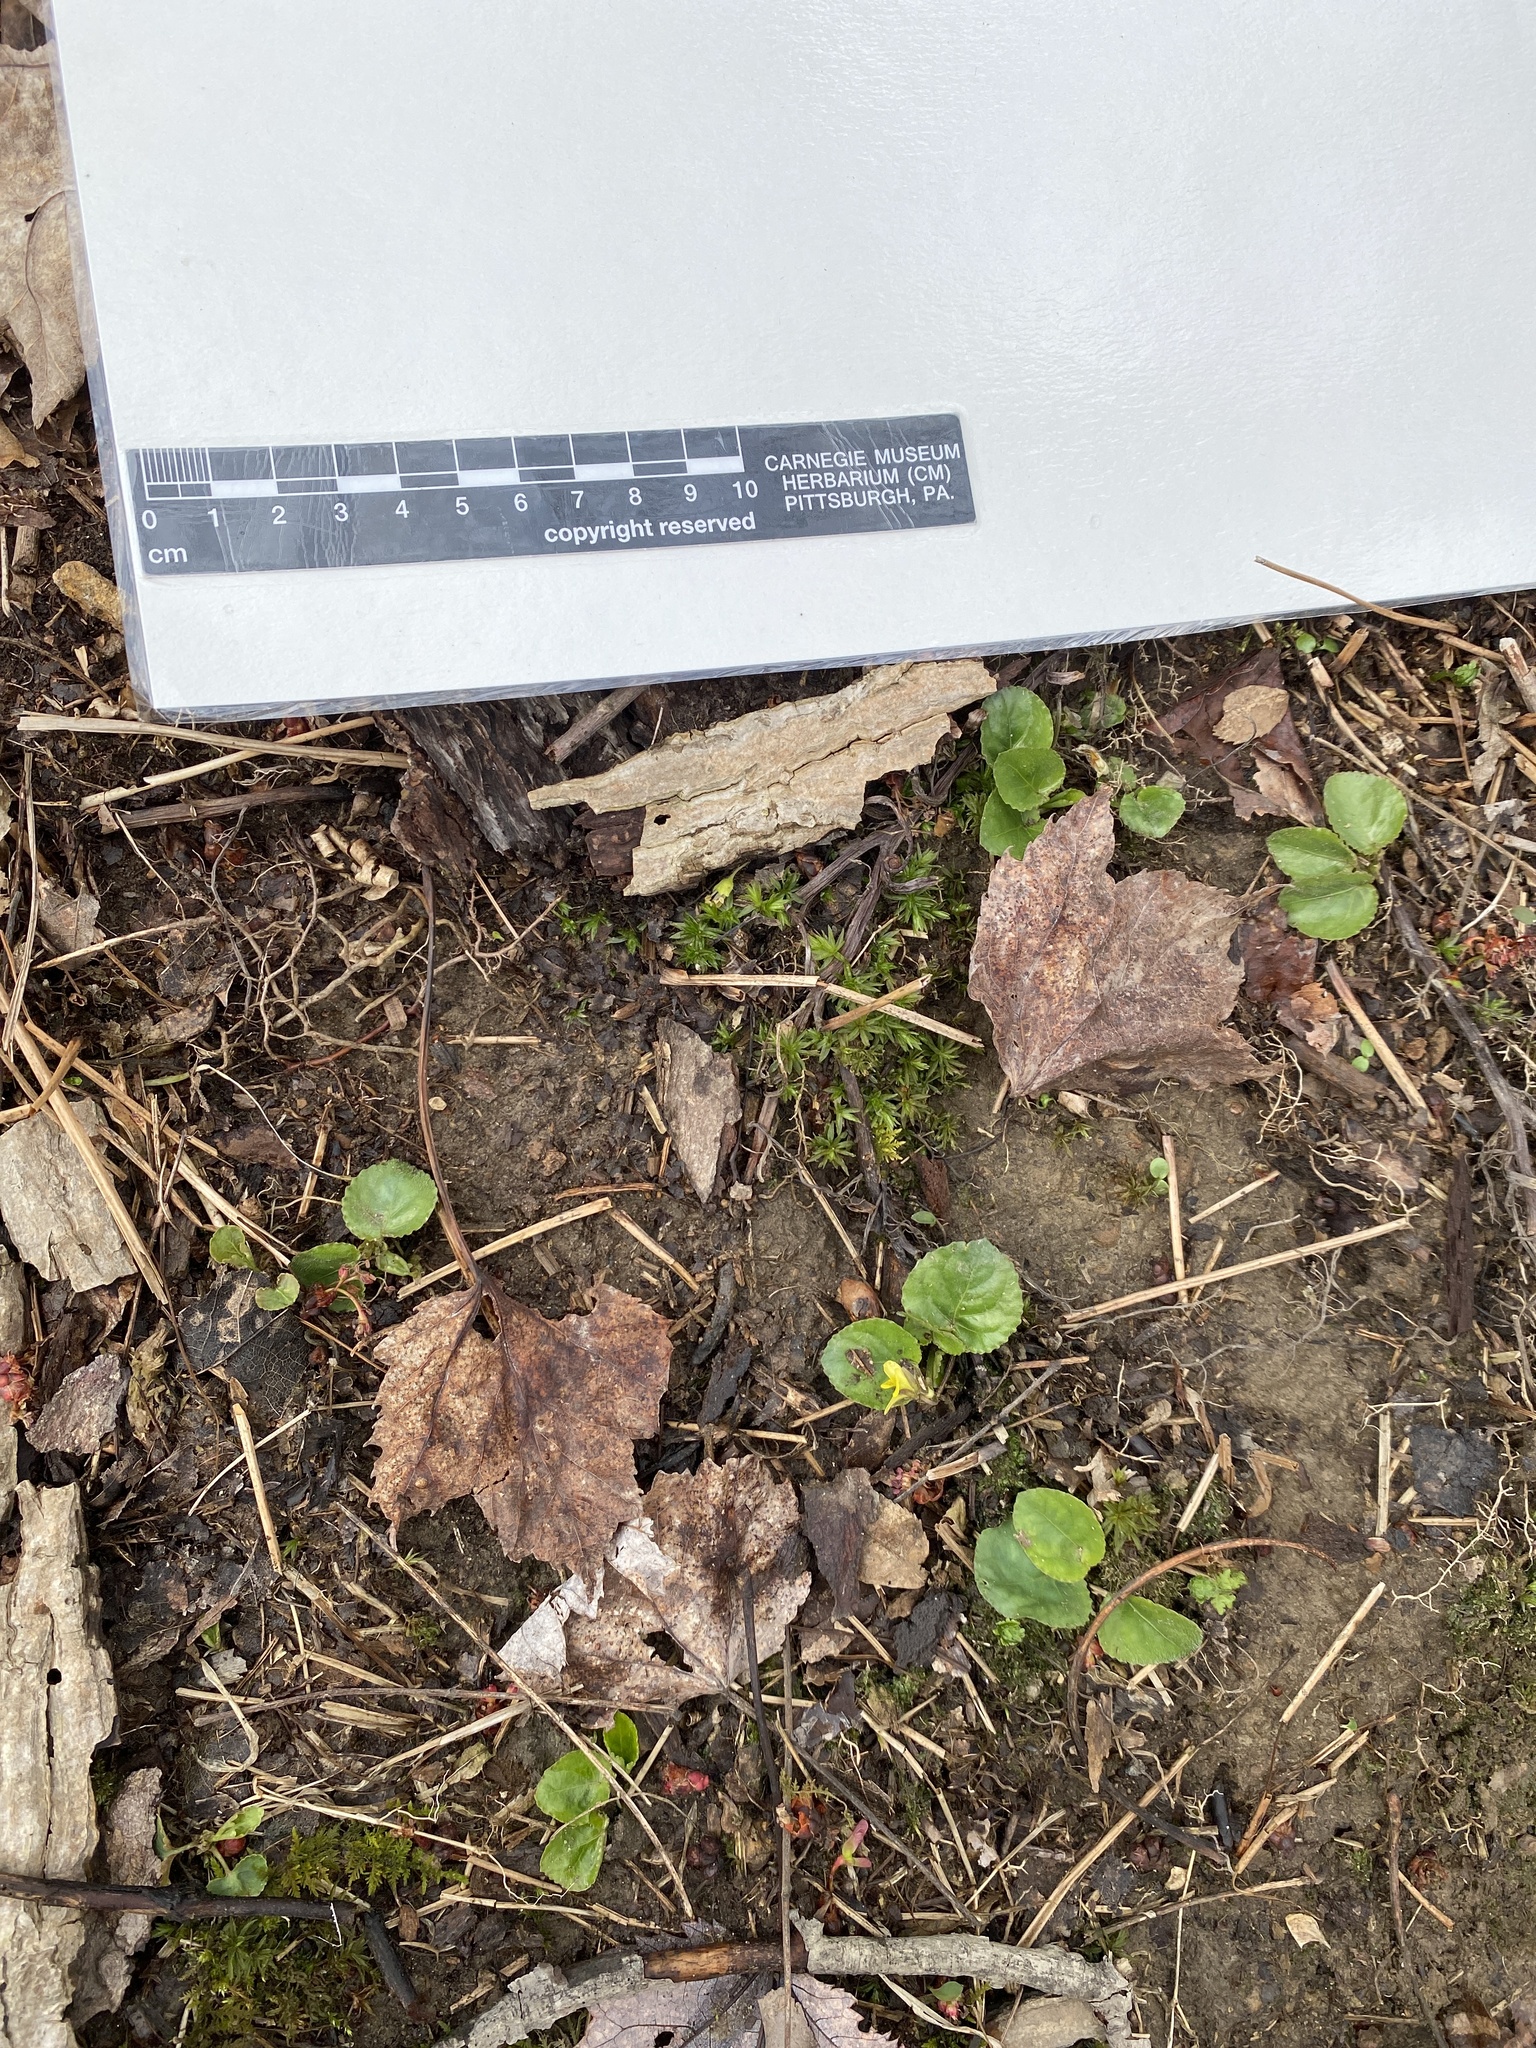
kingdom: Plantae
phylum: Tracheophyta
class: Magnoliopsida
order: Malpighiales
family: Violaceae
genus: Viola
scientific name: Viola rotundifolia
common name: Early yellow violet
